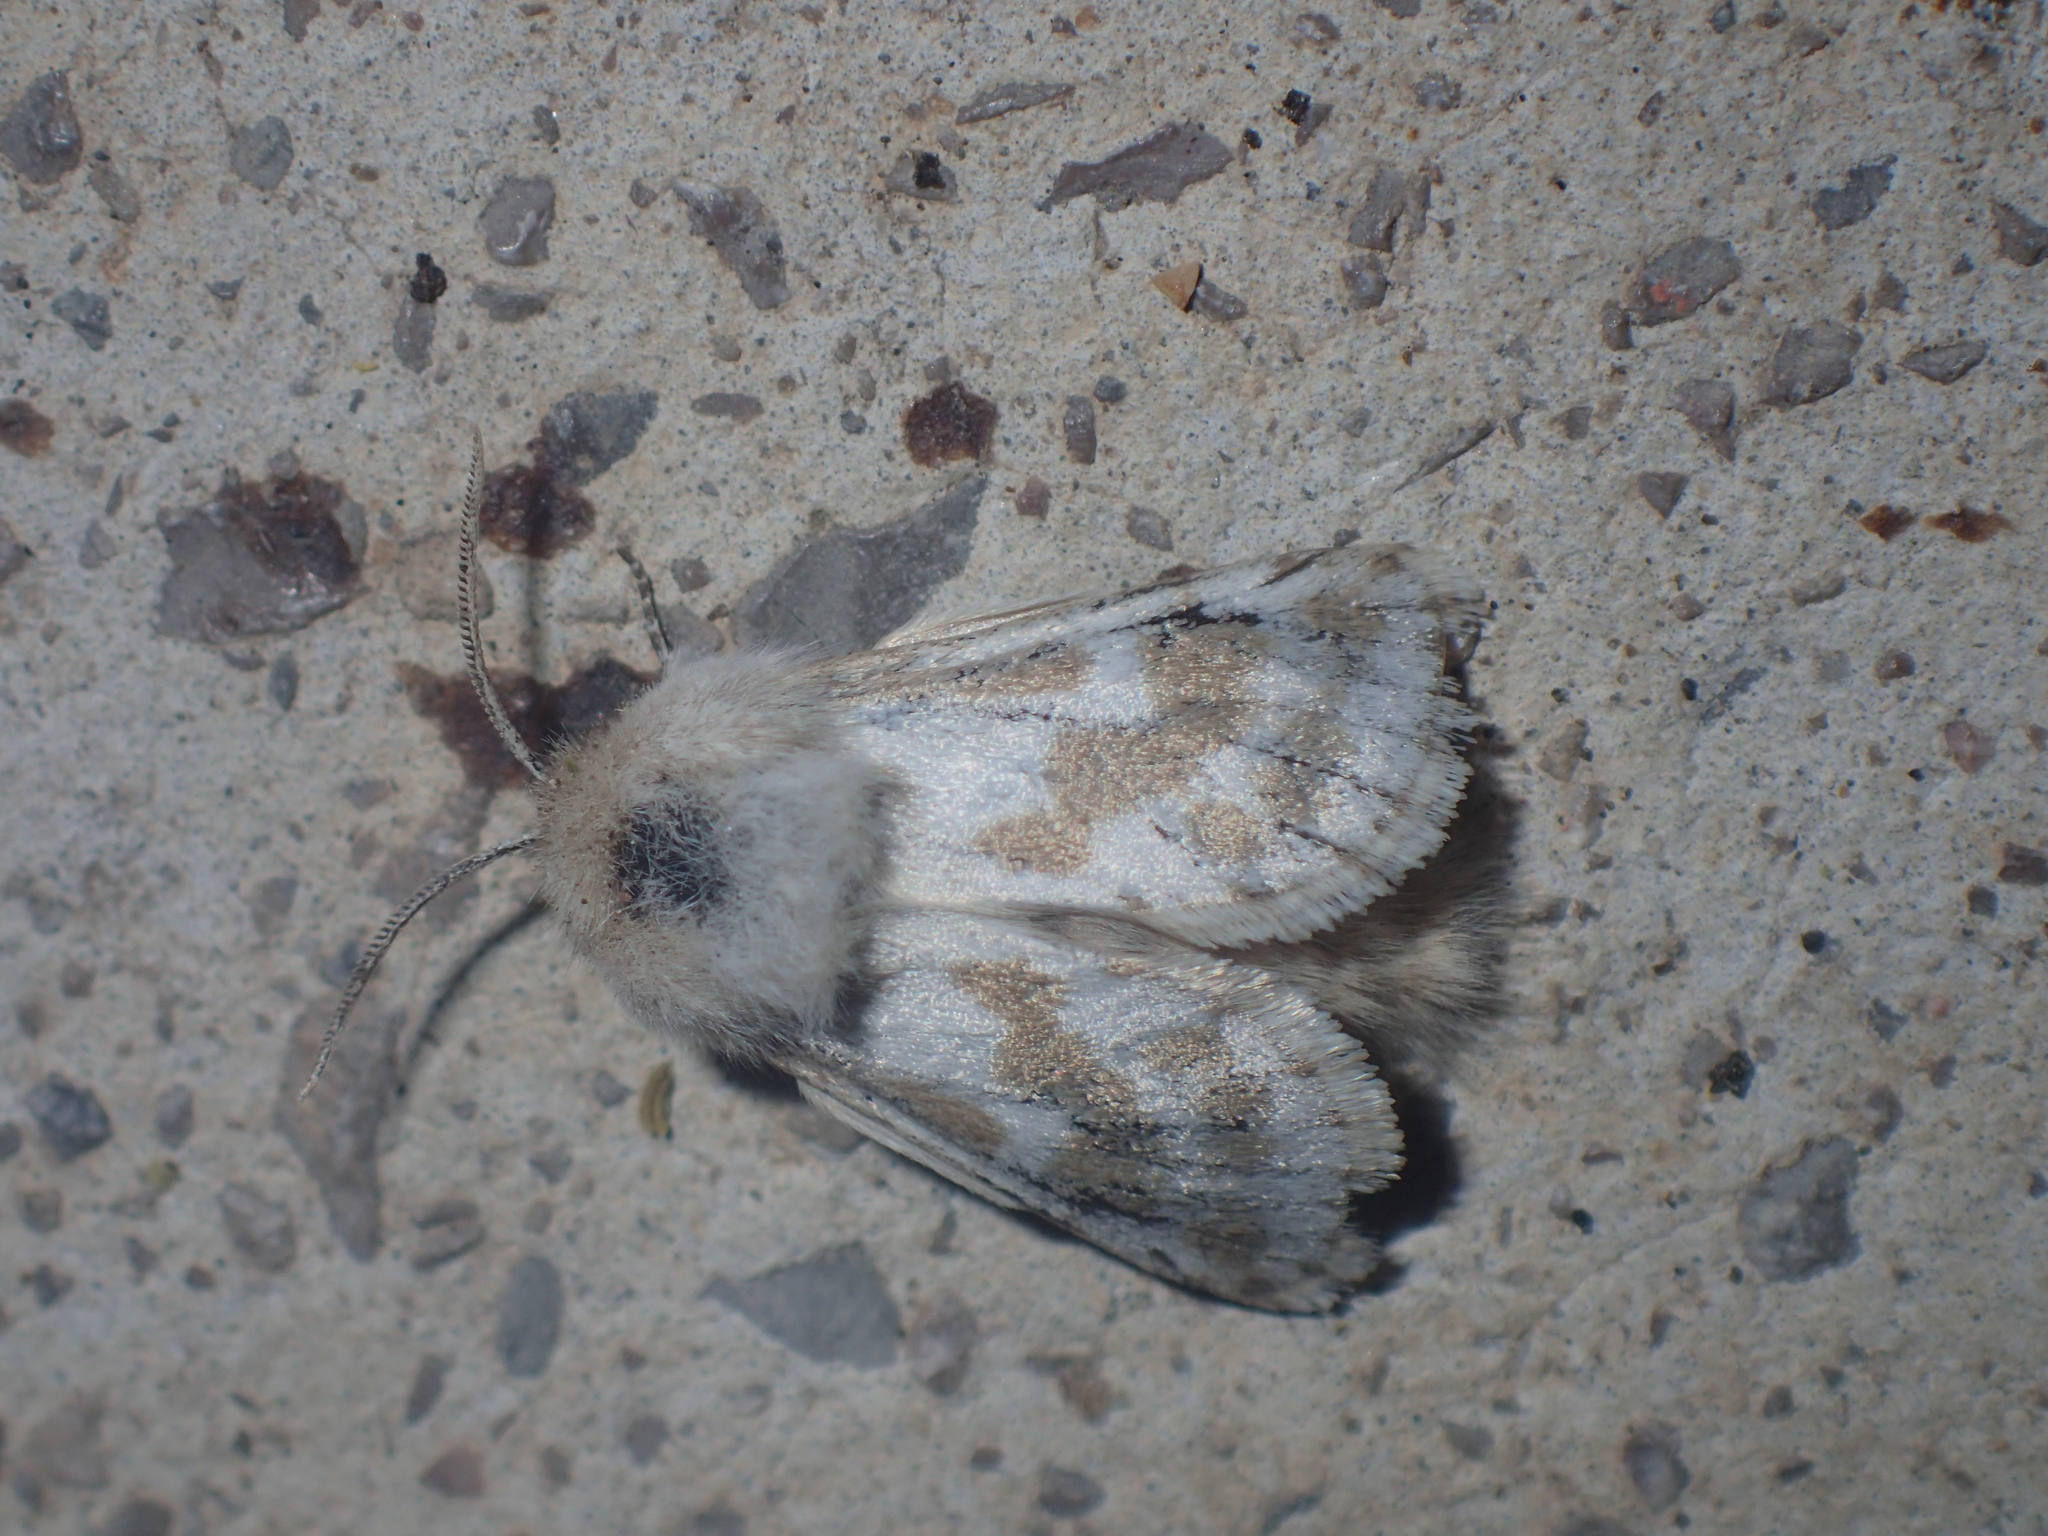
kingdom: Animalia
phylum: Arthropoda
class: Insecta
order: Lepidoptera
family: Cossidae
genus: Dyspessa
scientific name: Dyspessa ulula
